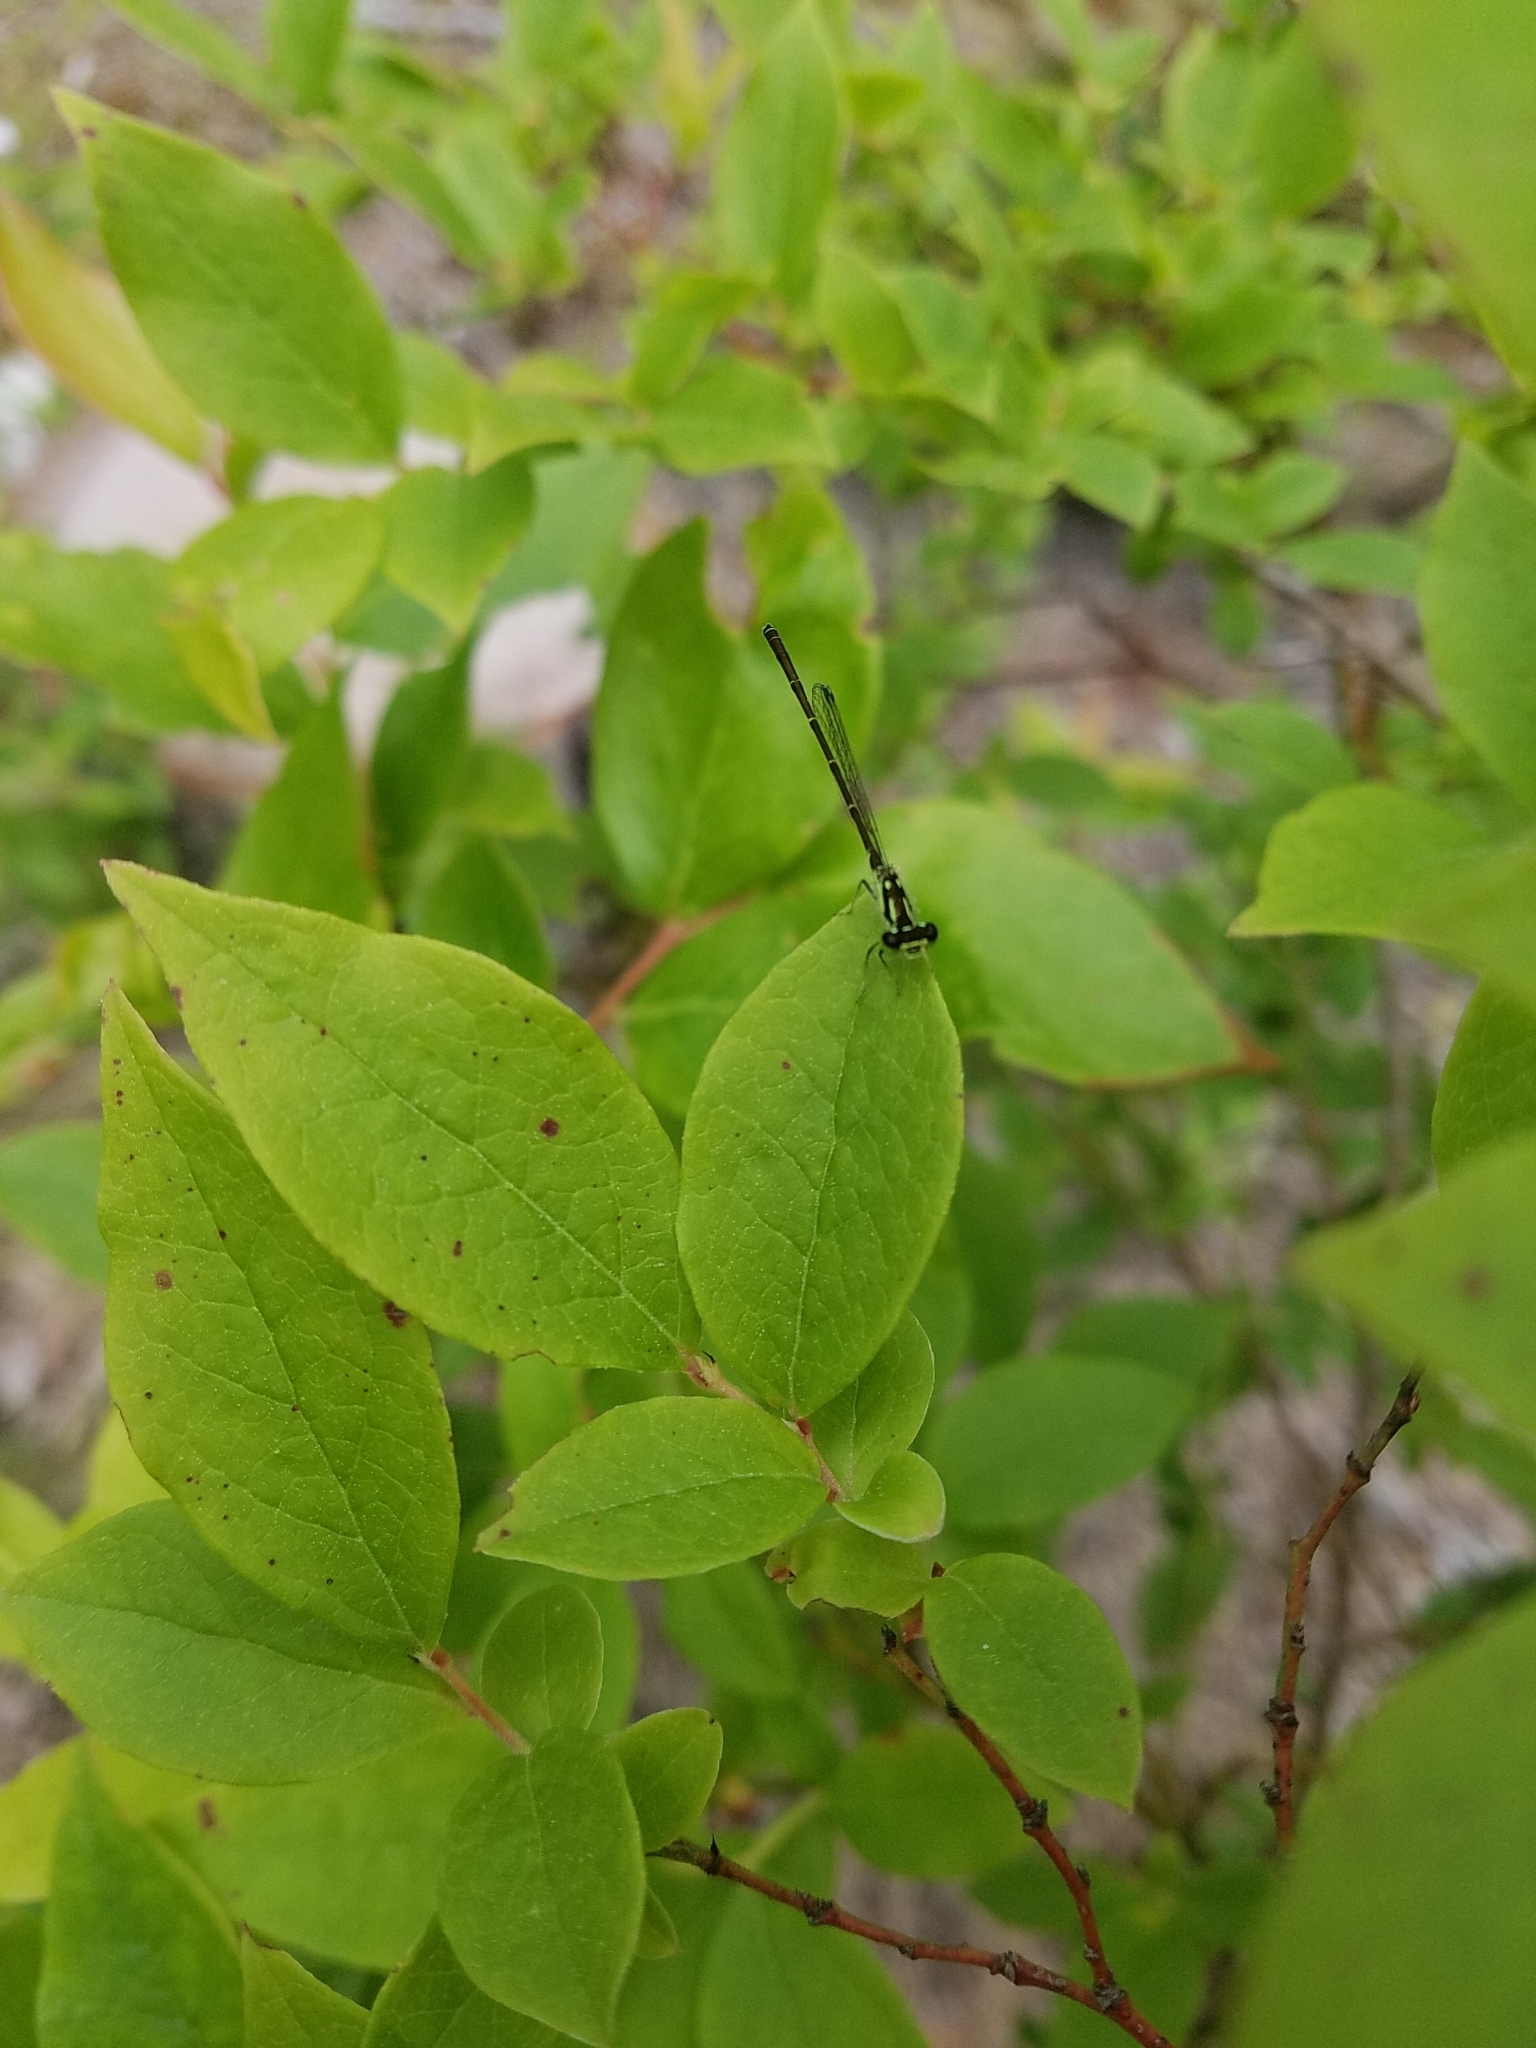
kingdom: Animalia
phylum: Arthropoda
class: Insecta
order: Odonata
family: Coenagrionidae
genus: Ischnura
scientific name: Ischnura posita
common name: Fragile forktail
